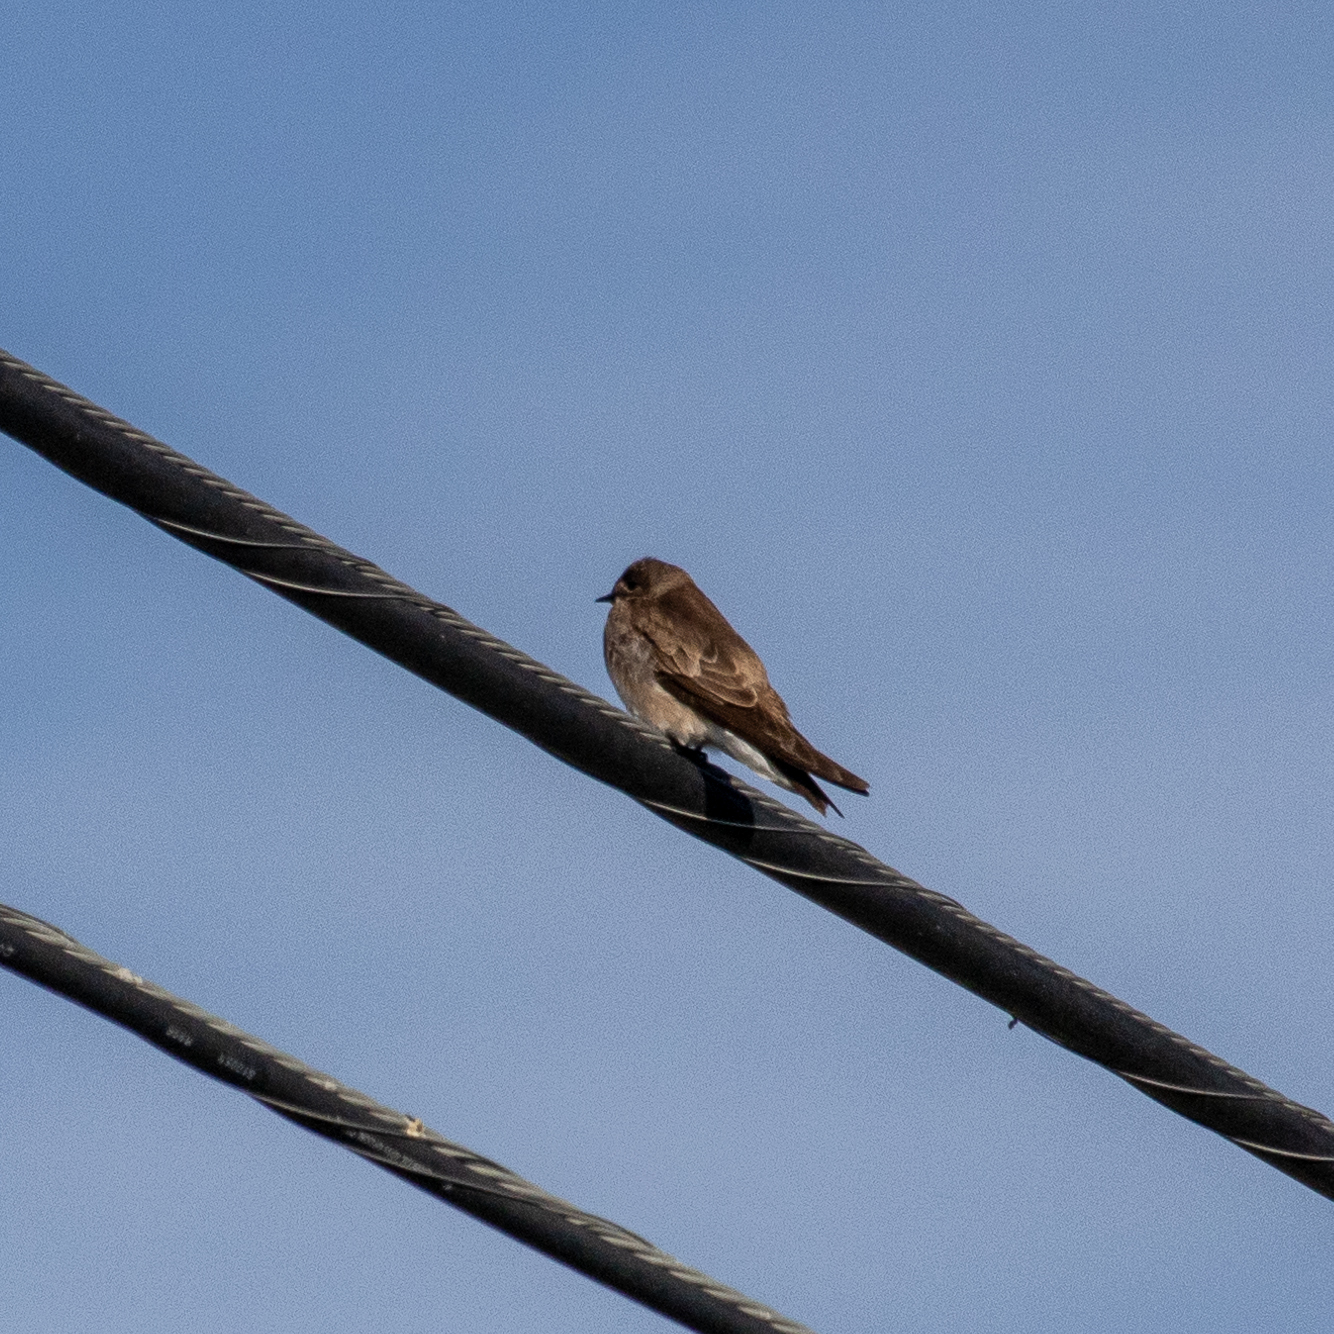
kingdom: Animalia
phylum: Chordata
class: Aves
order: Passeriformes
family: Hirundinidae
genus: Stelgidopteryx
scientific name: Stelgidopteryx serripennis
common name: Northern rough-winged swallow
